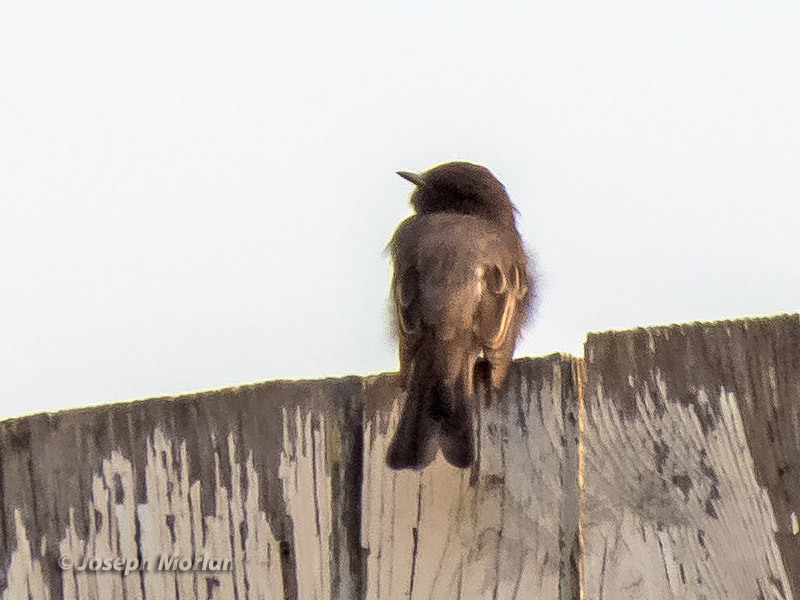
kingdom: Animalia
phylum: Chordata
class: Aves
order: Passeriformes
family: Tyrannidae
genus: Sayornis
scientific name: Sayornis nigricans
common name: Black phoebe
